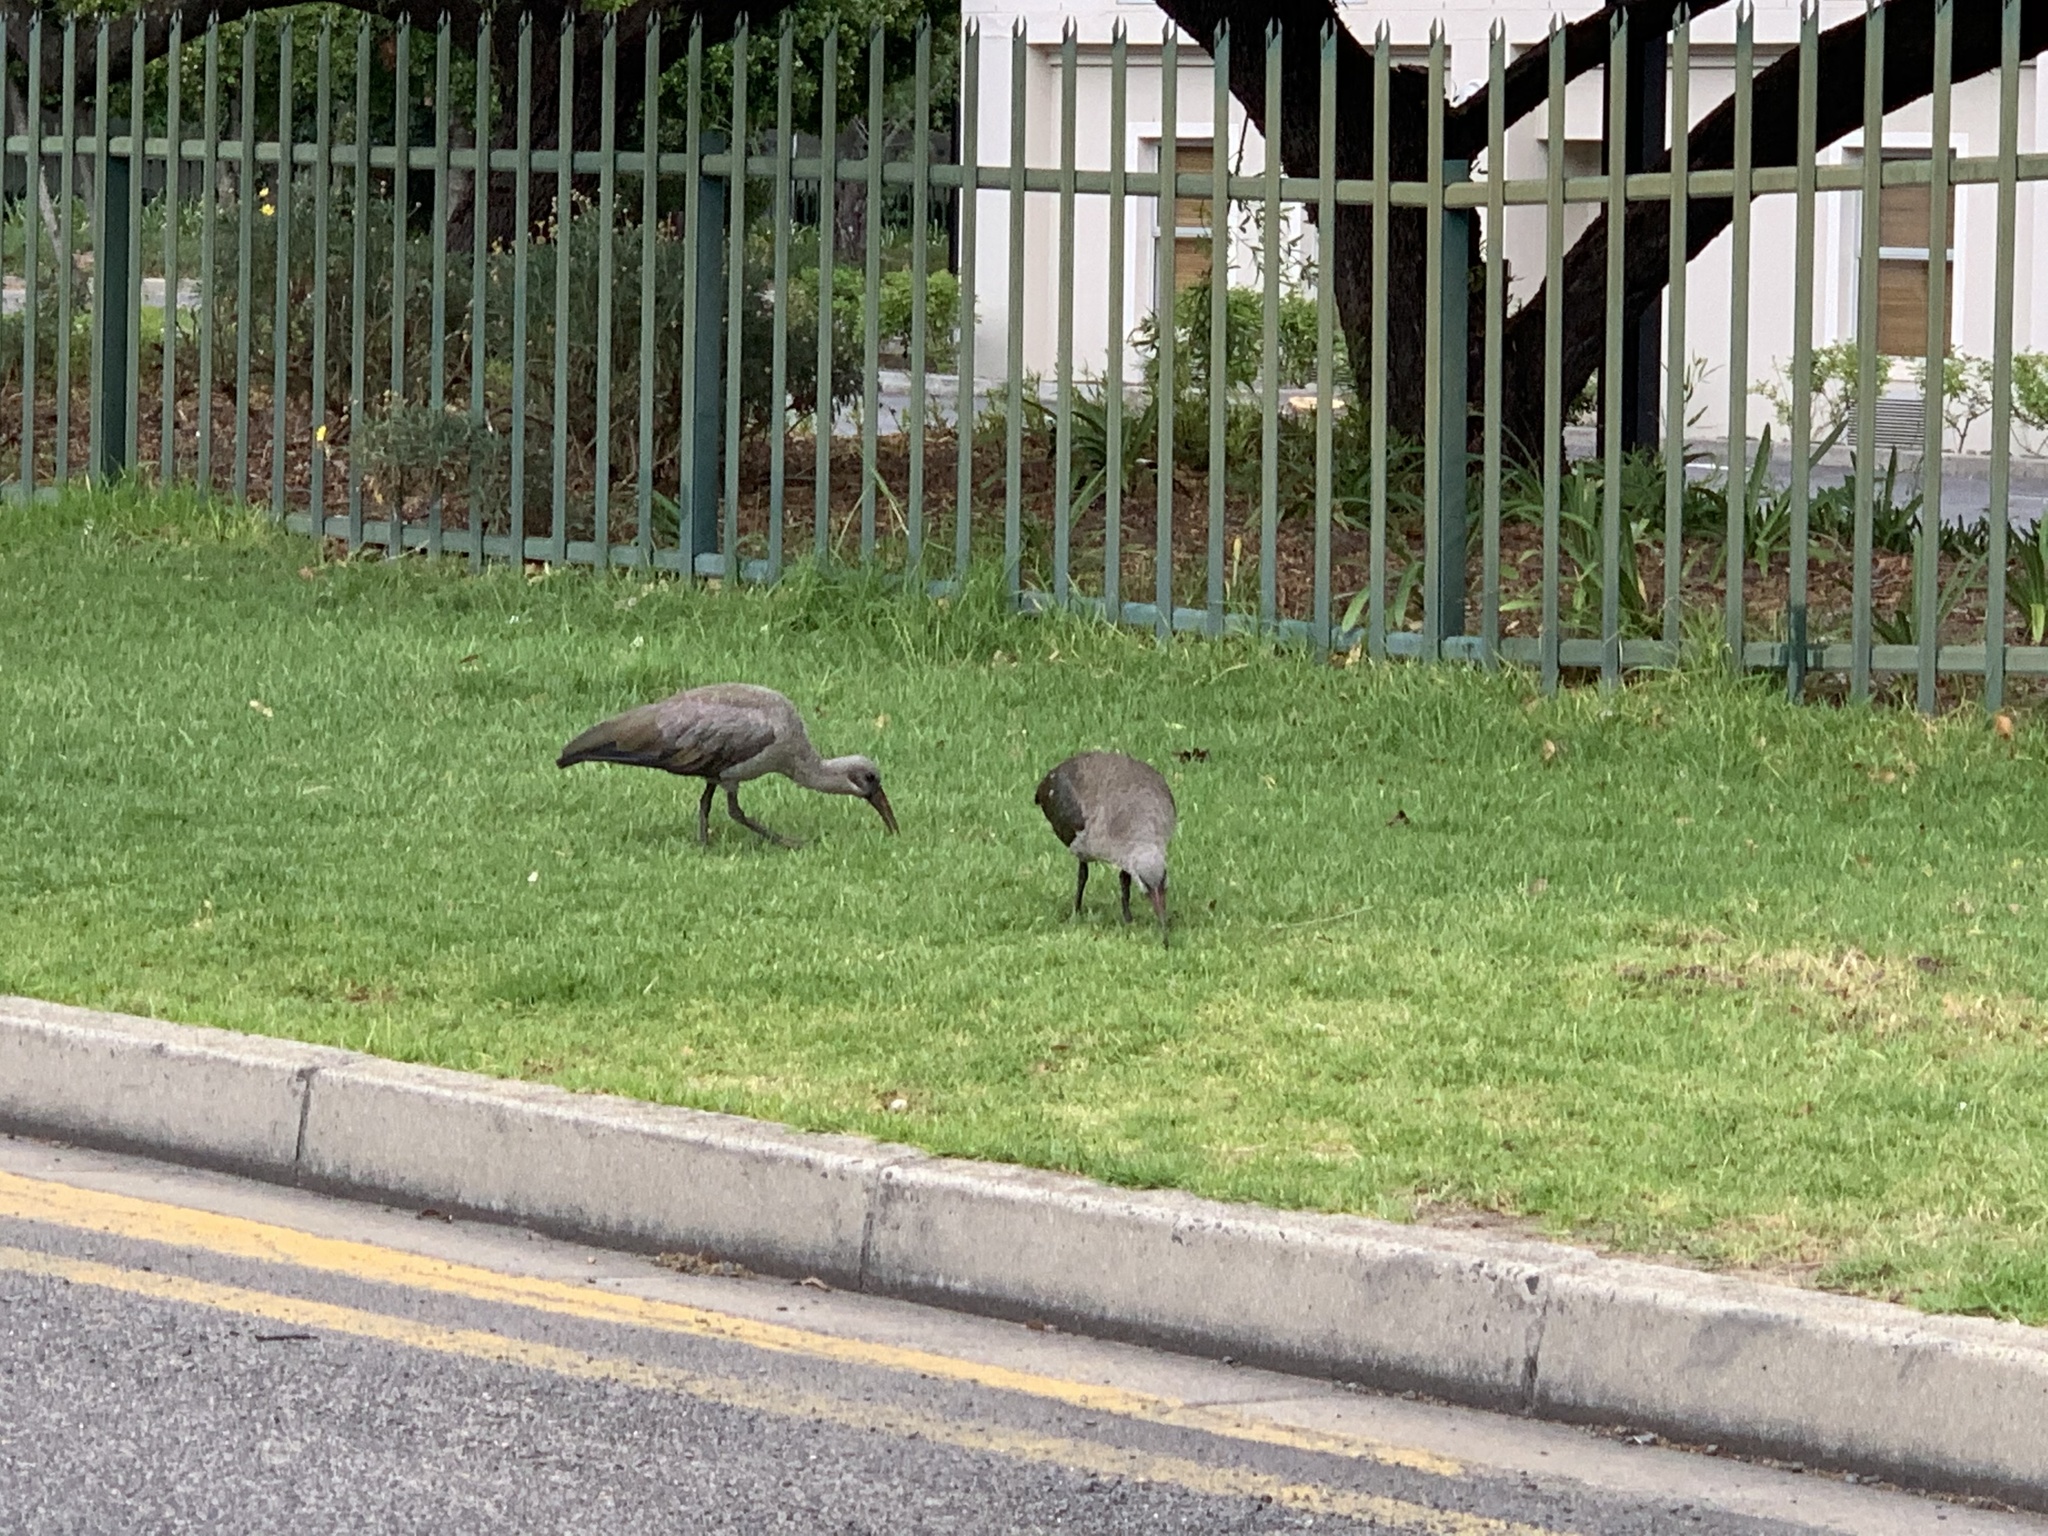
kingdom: Animalia
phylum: Chordata
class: Aves
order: Pelecaniformes
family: Threskiornithidae
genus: Bostrychia
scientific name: Bostrychia hagedash
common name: Hadada ibis
